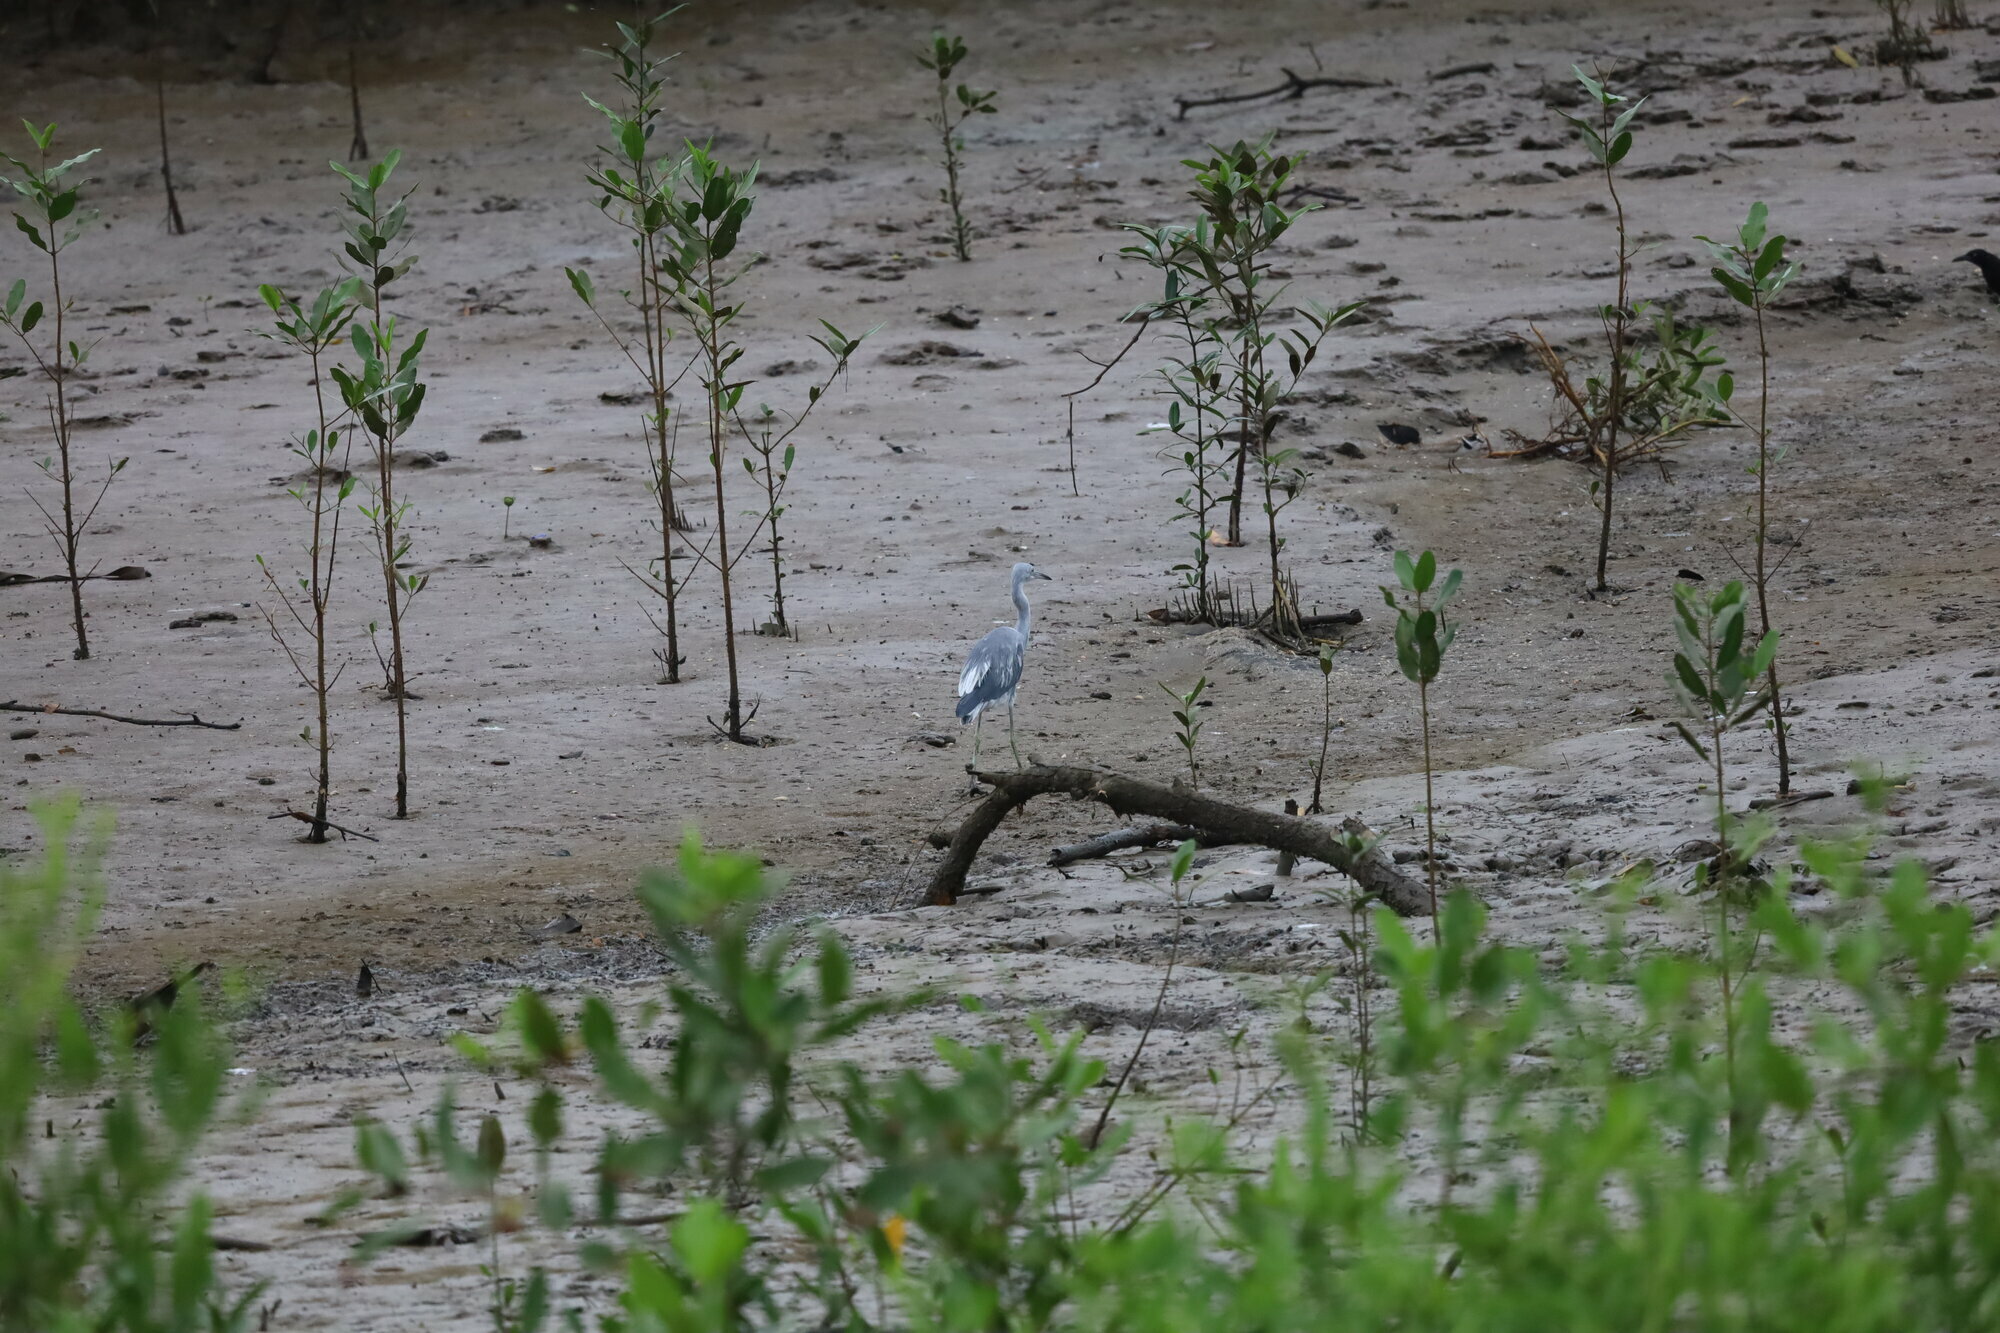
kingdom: Animalia
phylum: Chordata
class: Aves
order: Pelecaniformes
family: Ardeidae
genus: Egretta
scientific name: Egretta caerulea
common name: Little blue heron
